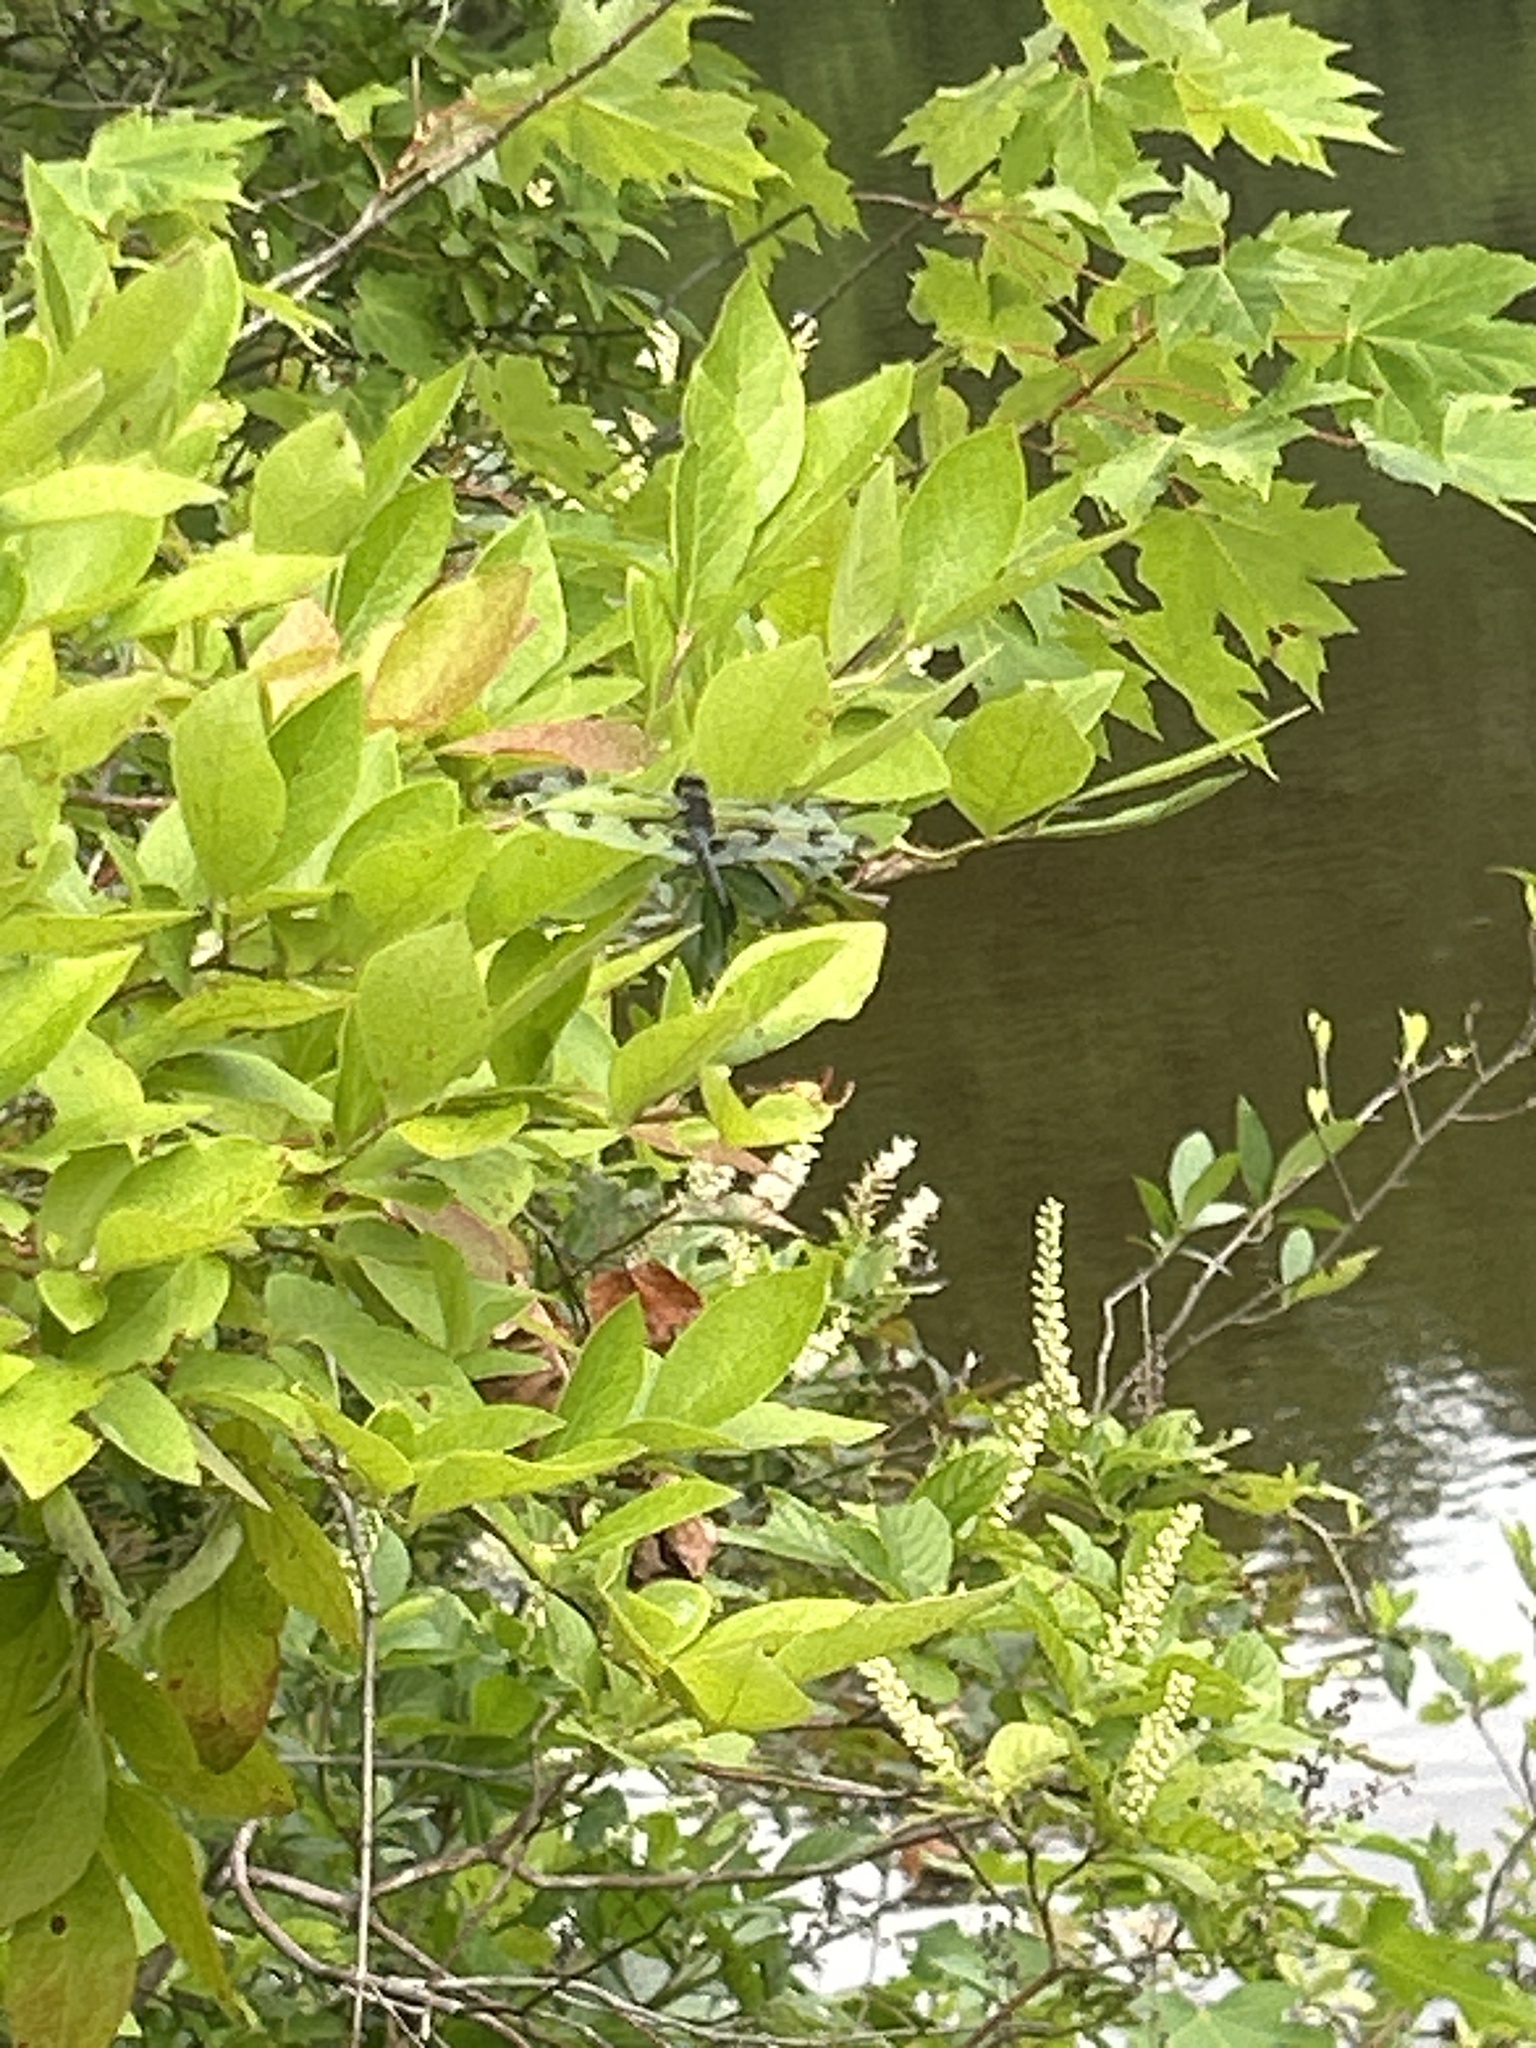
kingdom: Animalia
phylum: Arthropoda
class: Insecta
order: Odonata
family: Libellulidae
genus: Celithemis
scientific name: Celithemis fasciata
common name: Banded pennant
